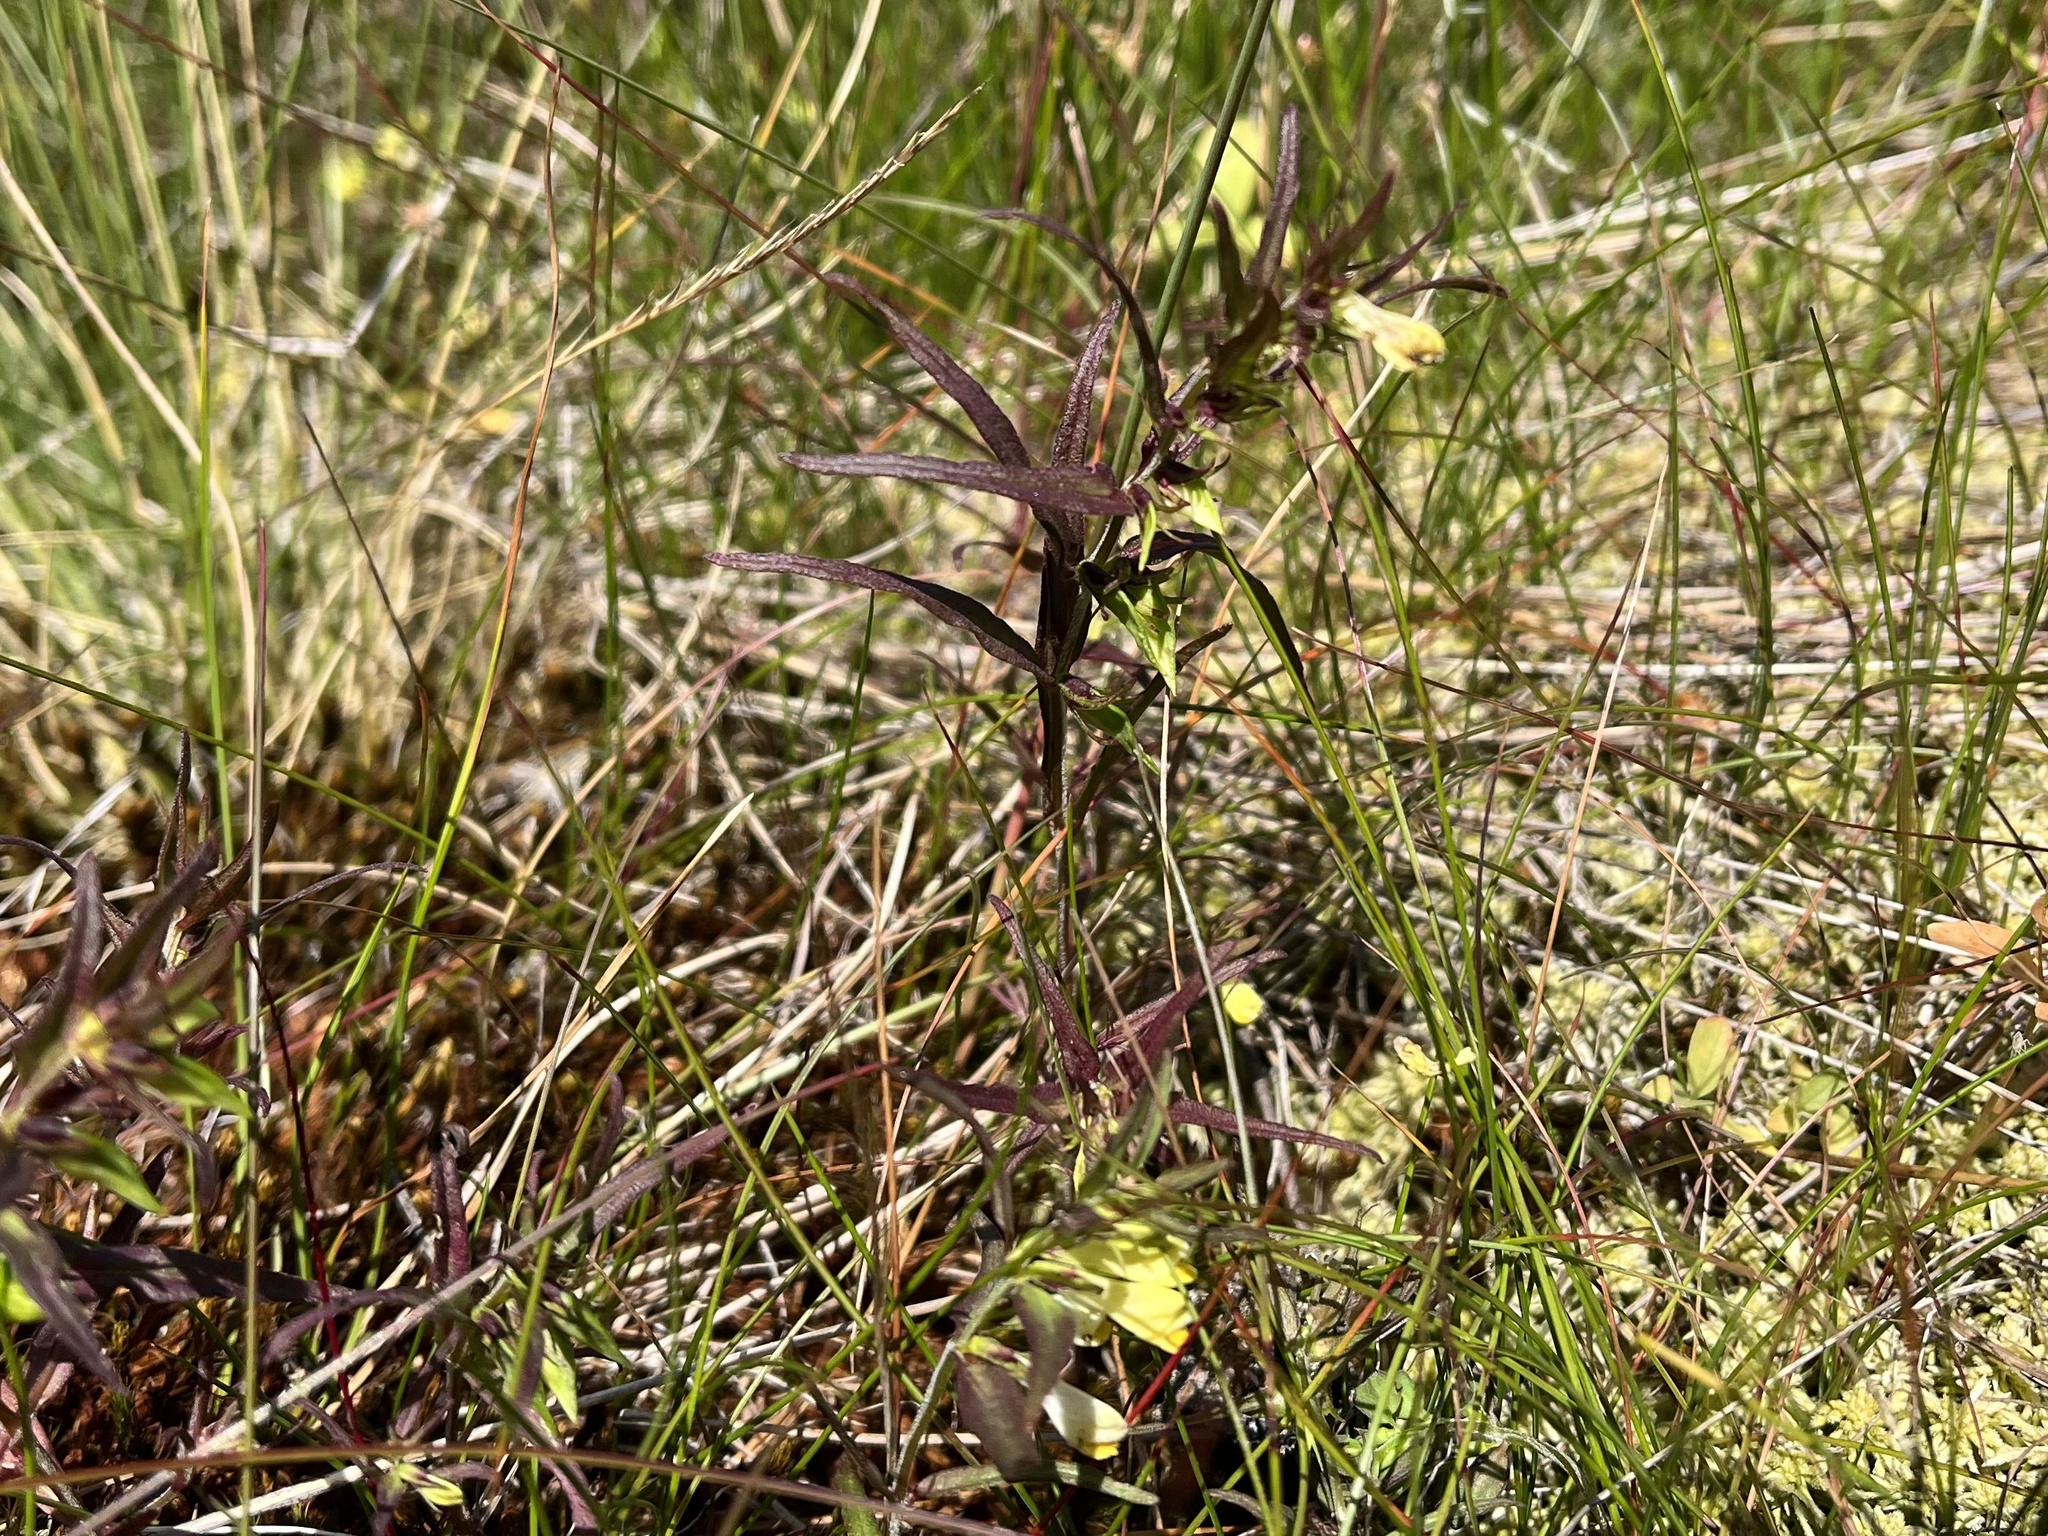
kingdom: Plantae
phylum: Tracheophyta
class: Magnoliopsida
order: Lamiales
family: Orobanchaceae
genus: Melampyrum
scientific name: Melampyrum pratense
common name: Common cow-wheat
